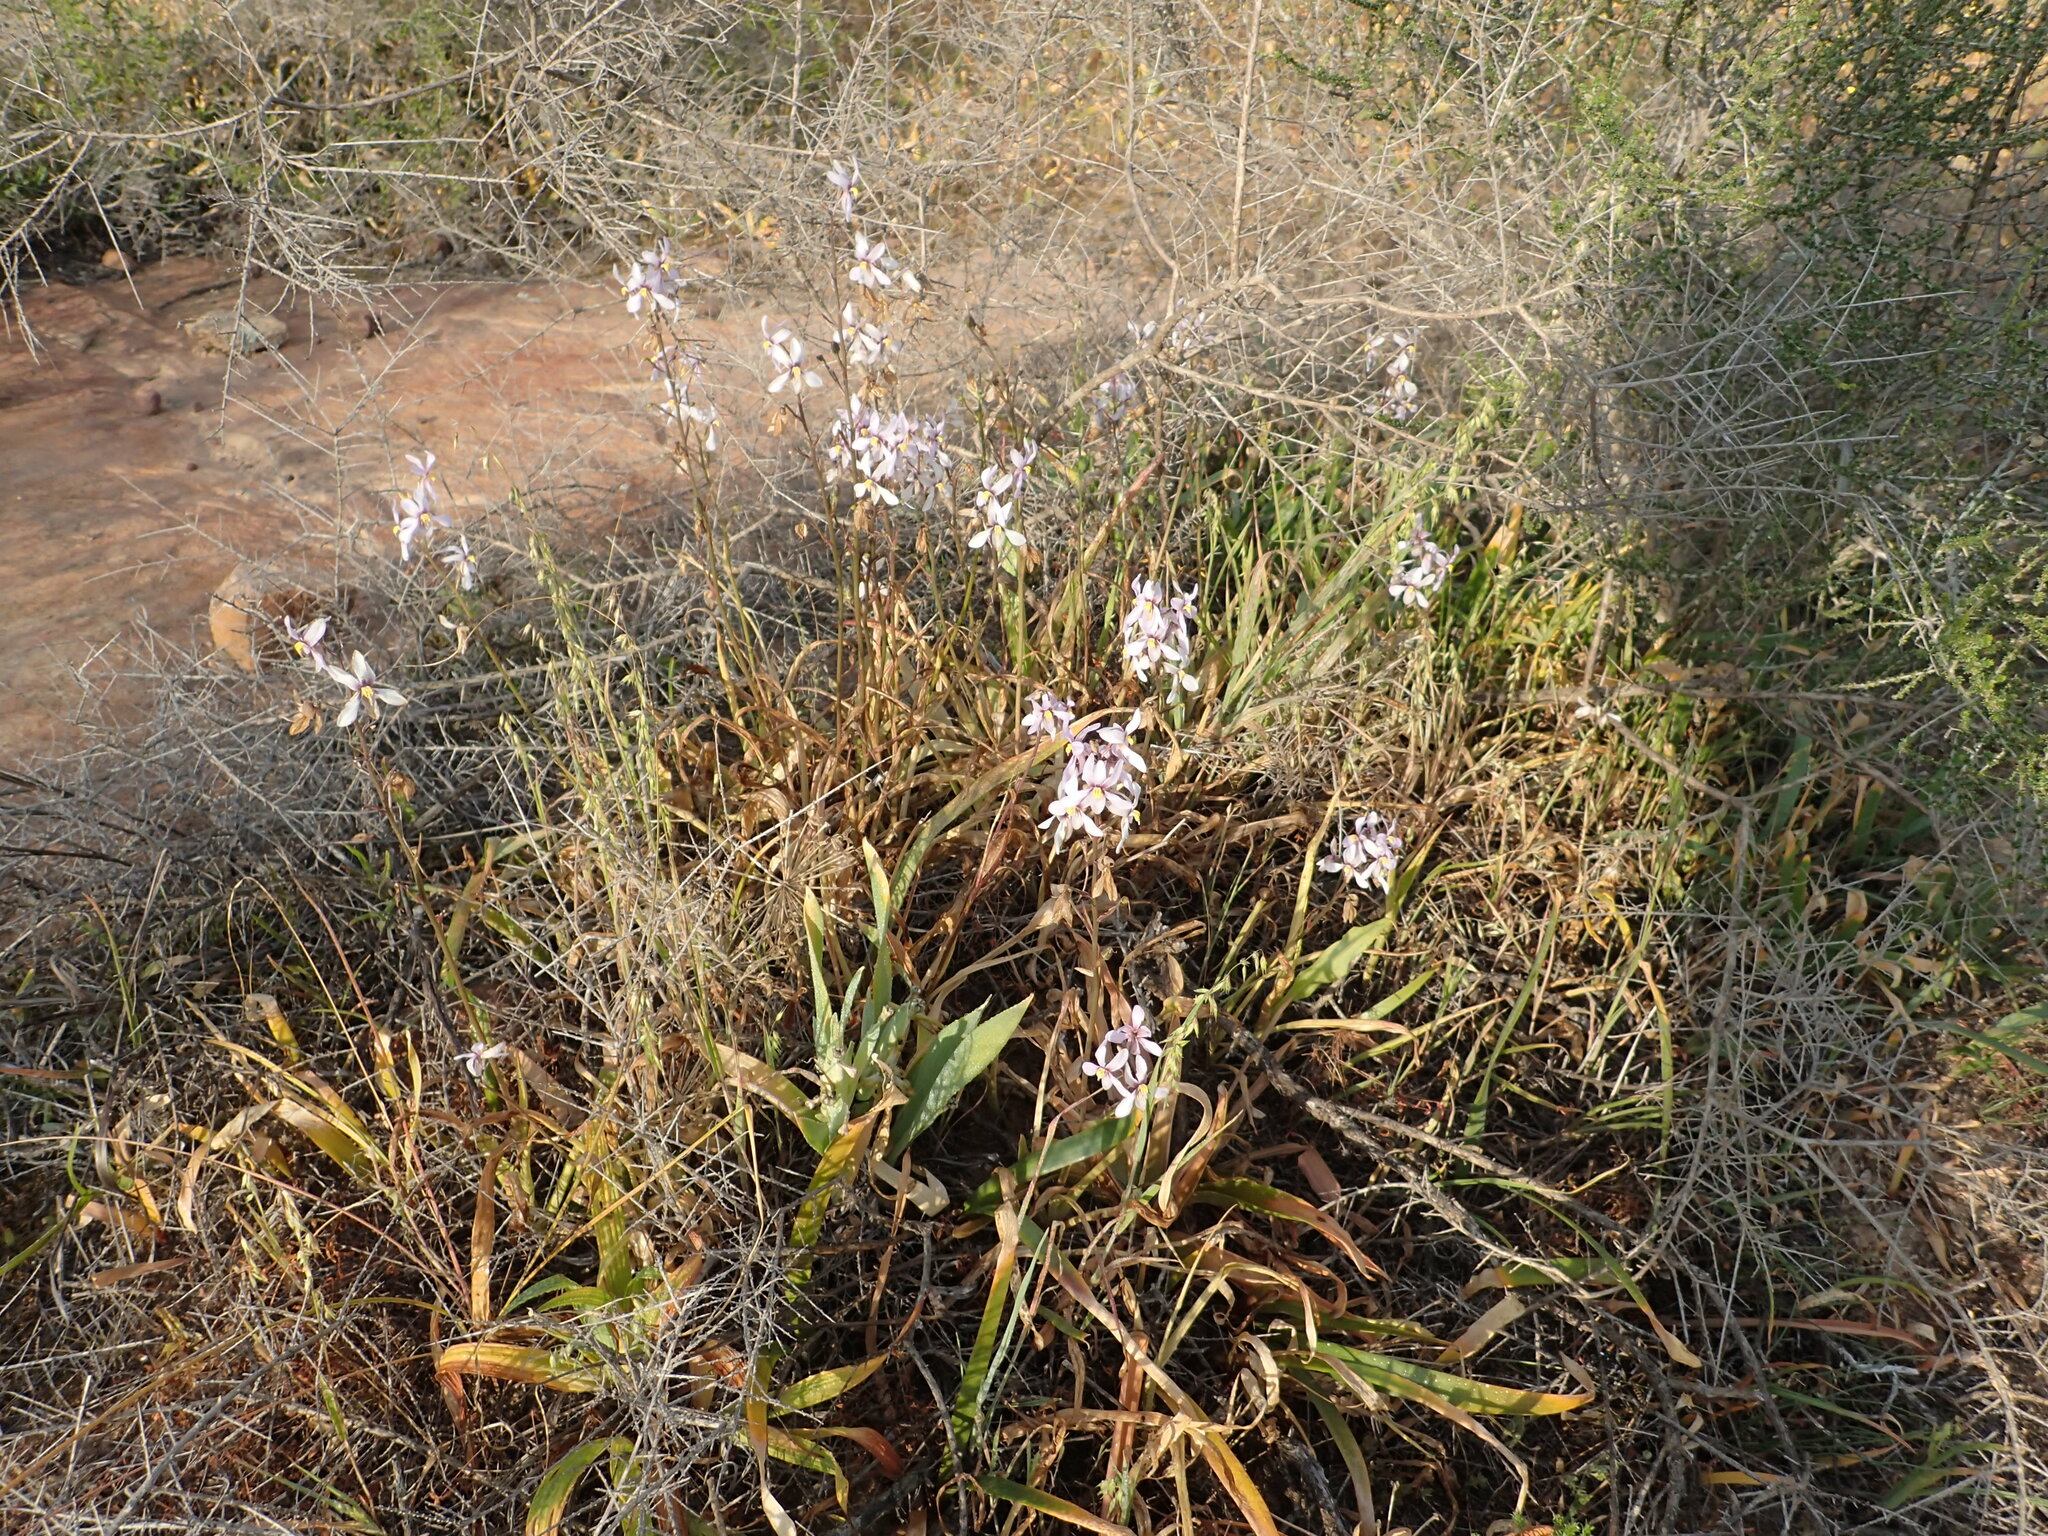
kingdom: Plantae
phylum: Tracheophyta
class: Liliopsida
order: Asparagales
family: Tecophilaeaceae
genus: Cyanella
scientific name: Cyanella orchidiformis
